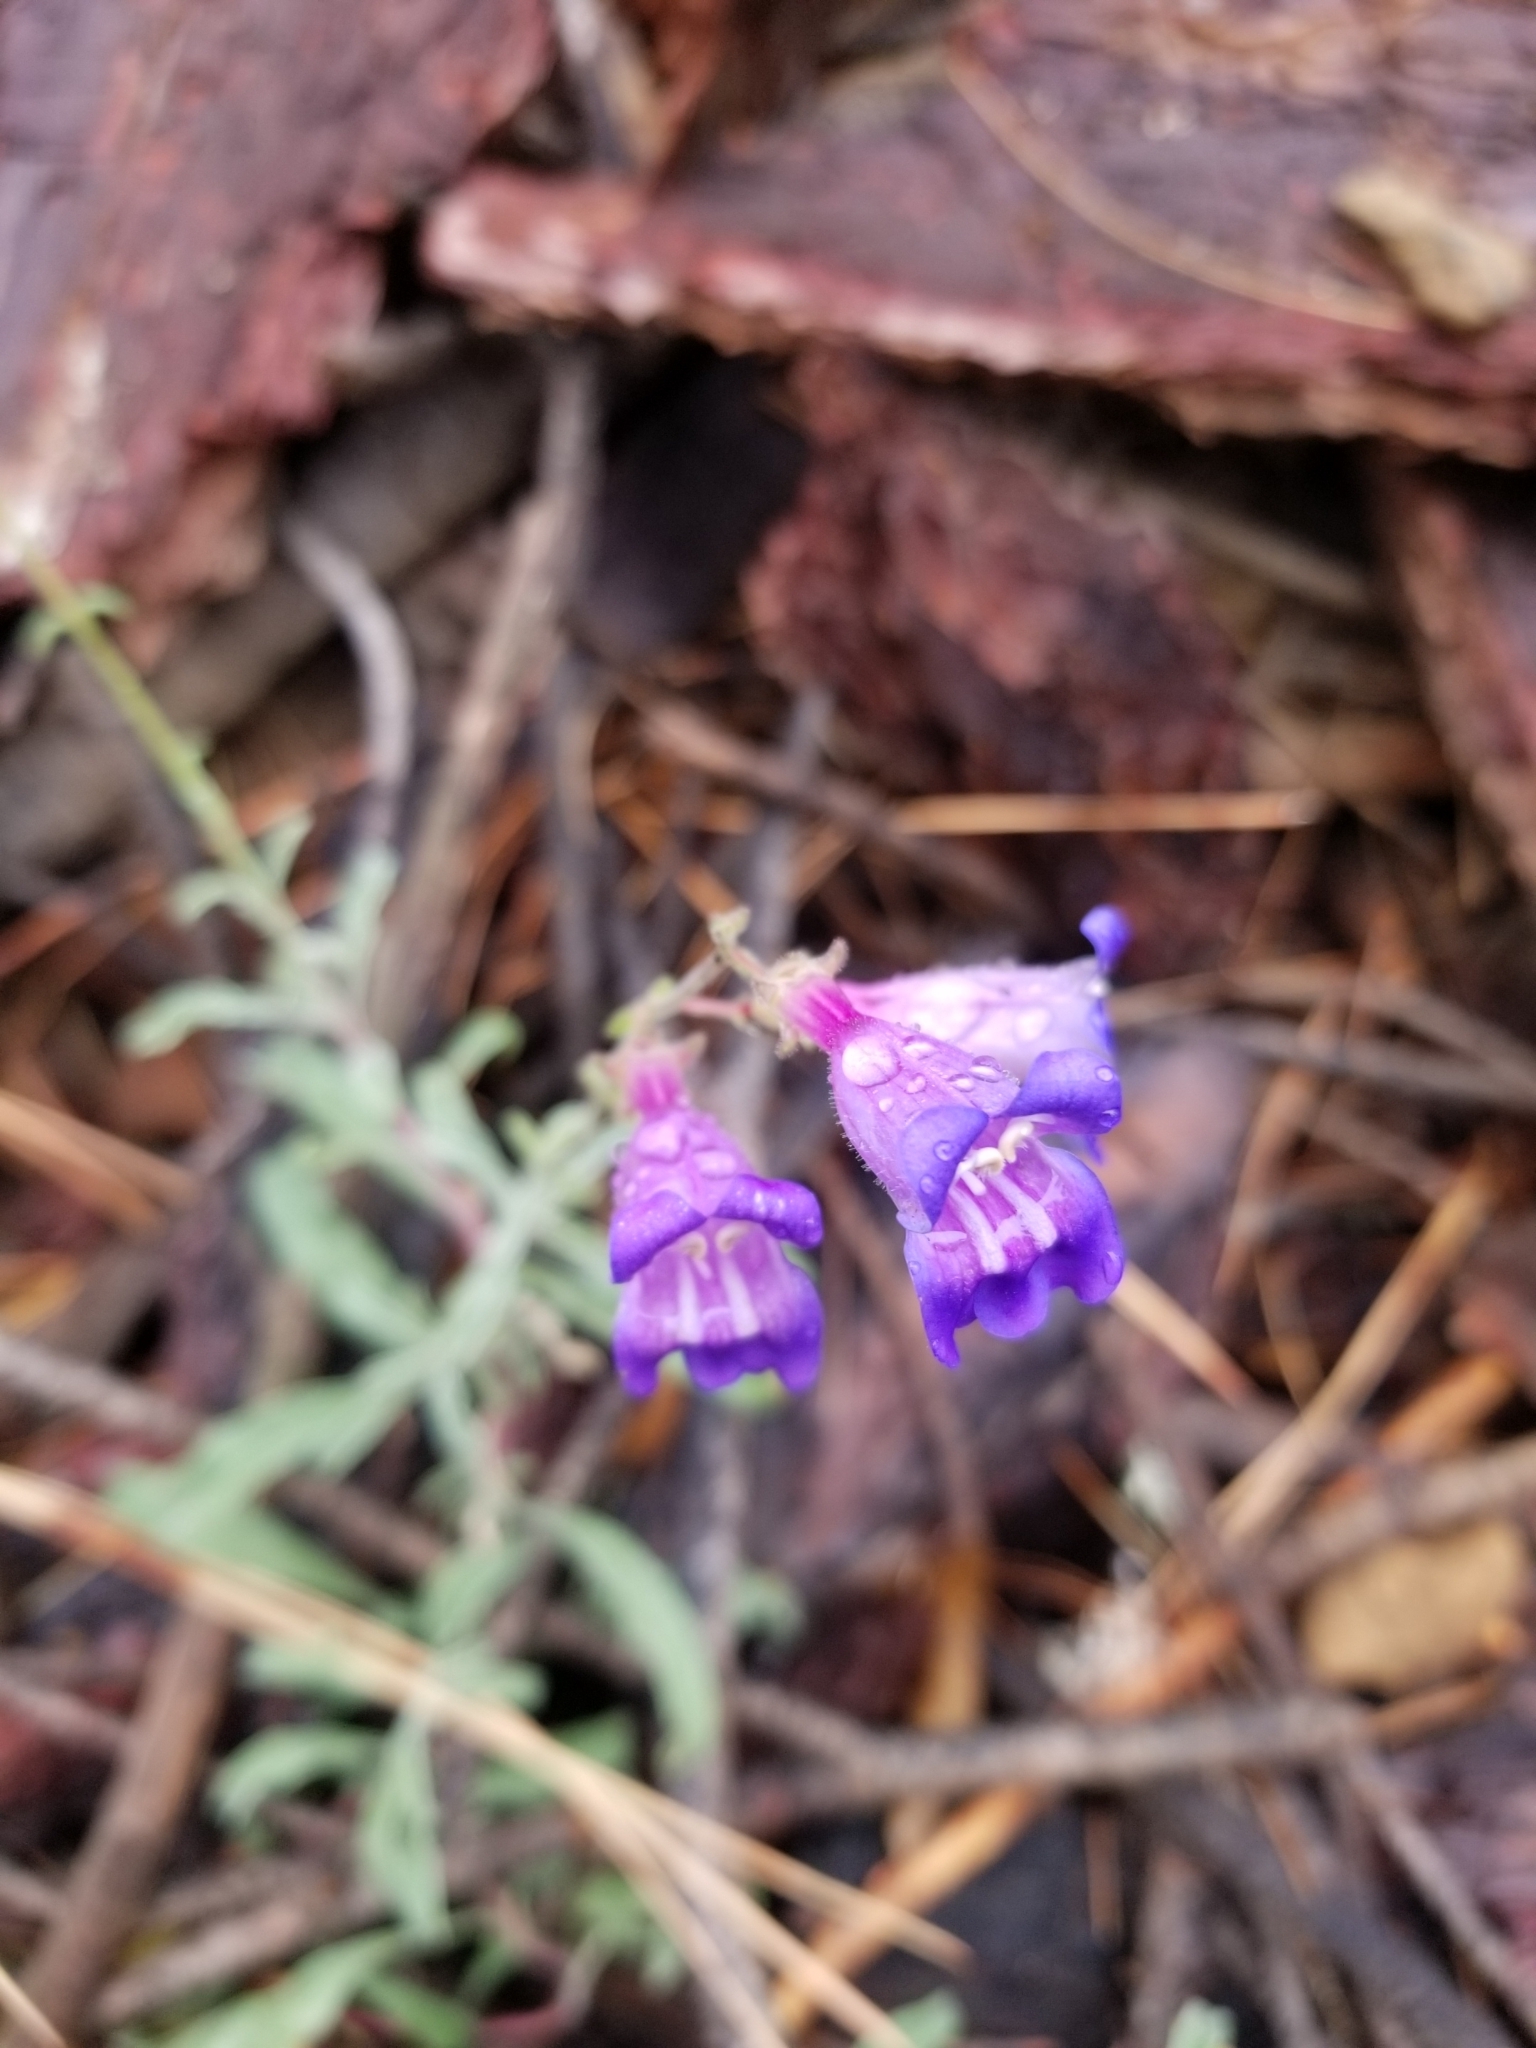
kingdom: Plantae
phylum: Tracheophyta
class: Magnoliopsida
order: Lamiales
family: Plantaginaceae
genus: Penstemon
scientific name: Penstemon laetus
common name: Gay penstemon
